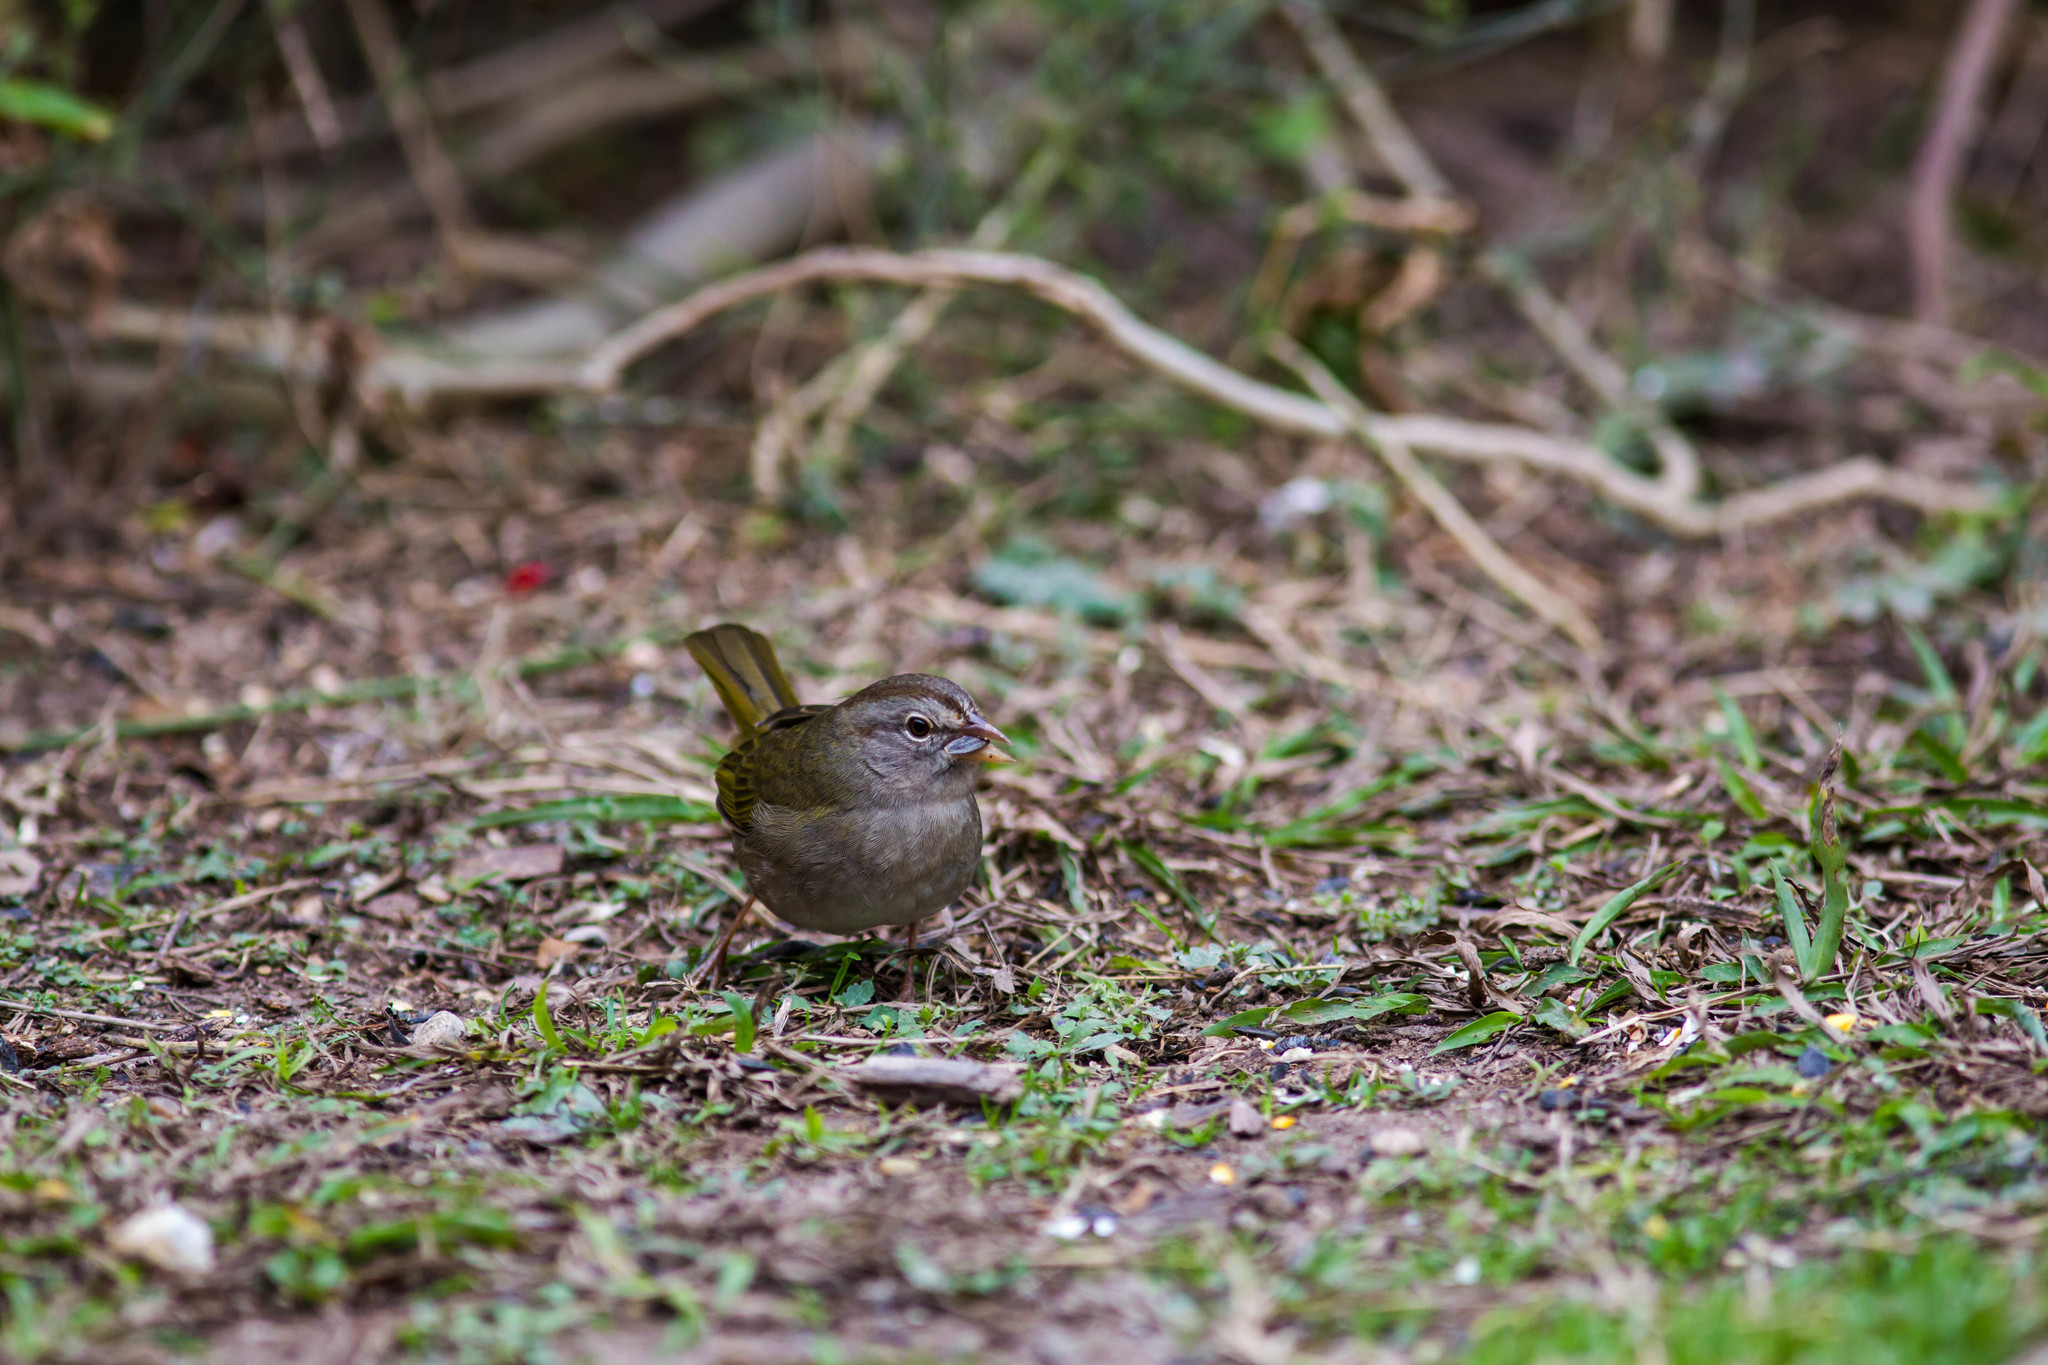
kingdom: Animalia
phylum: Chordata
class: Aves
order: Passeriformes
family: Passerellidae
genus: Arremonops
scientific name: Arremonops rufivirgatus
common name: Olive sparrow
